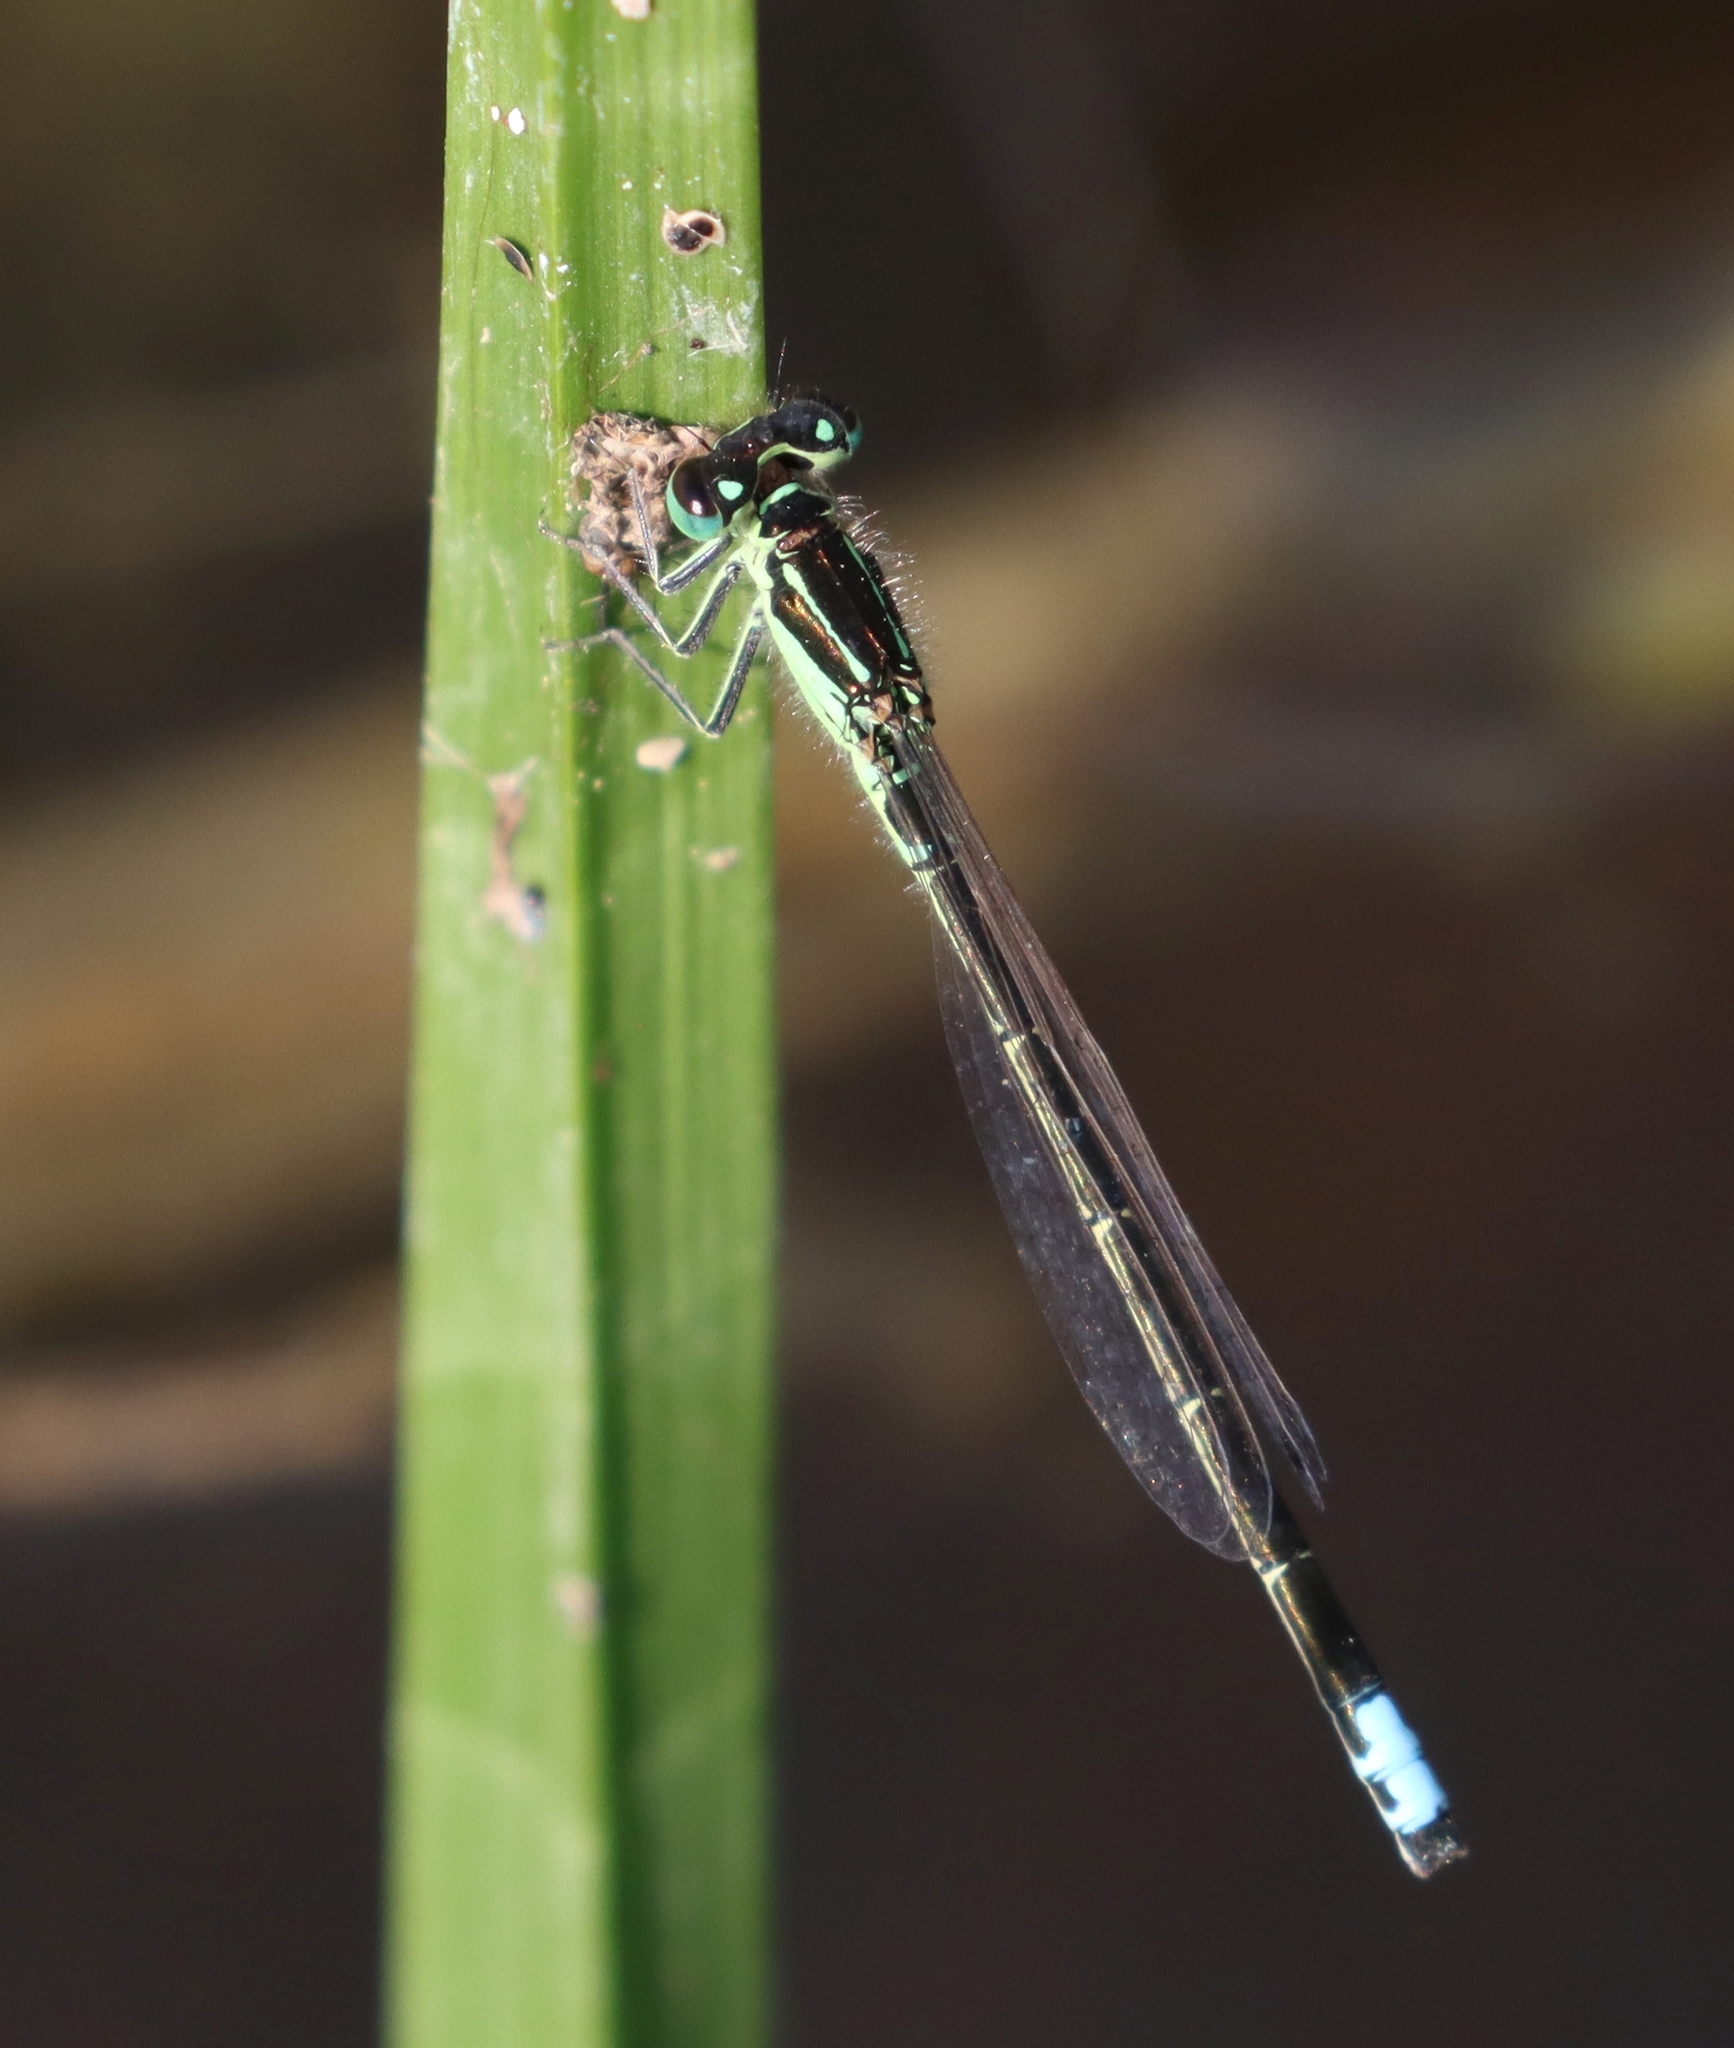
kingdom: Animalia
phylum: Arthropoda
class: Insecta
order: Odonata
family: Coenagrionidae
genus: Ischnura
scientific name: Ischnura verticalis
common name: Eastern forktail
